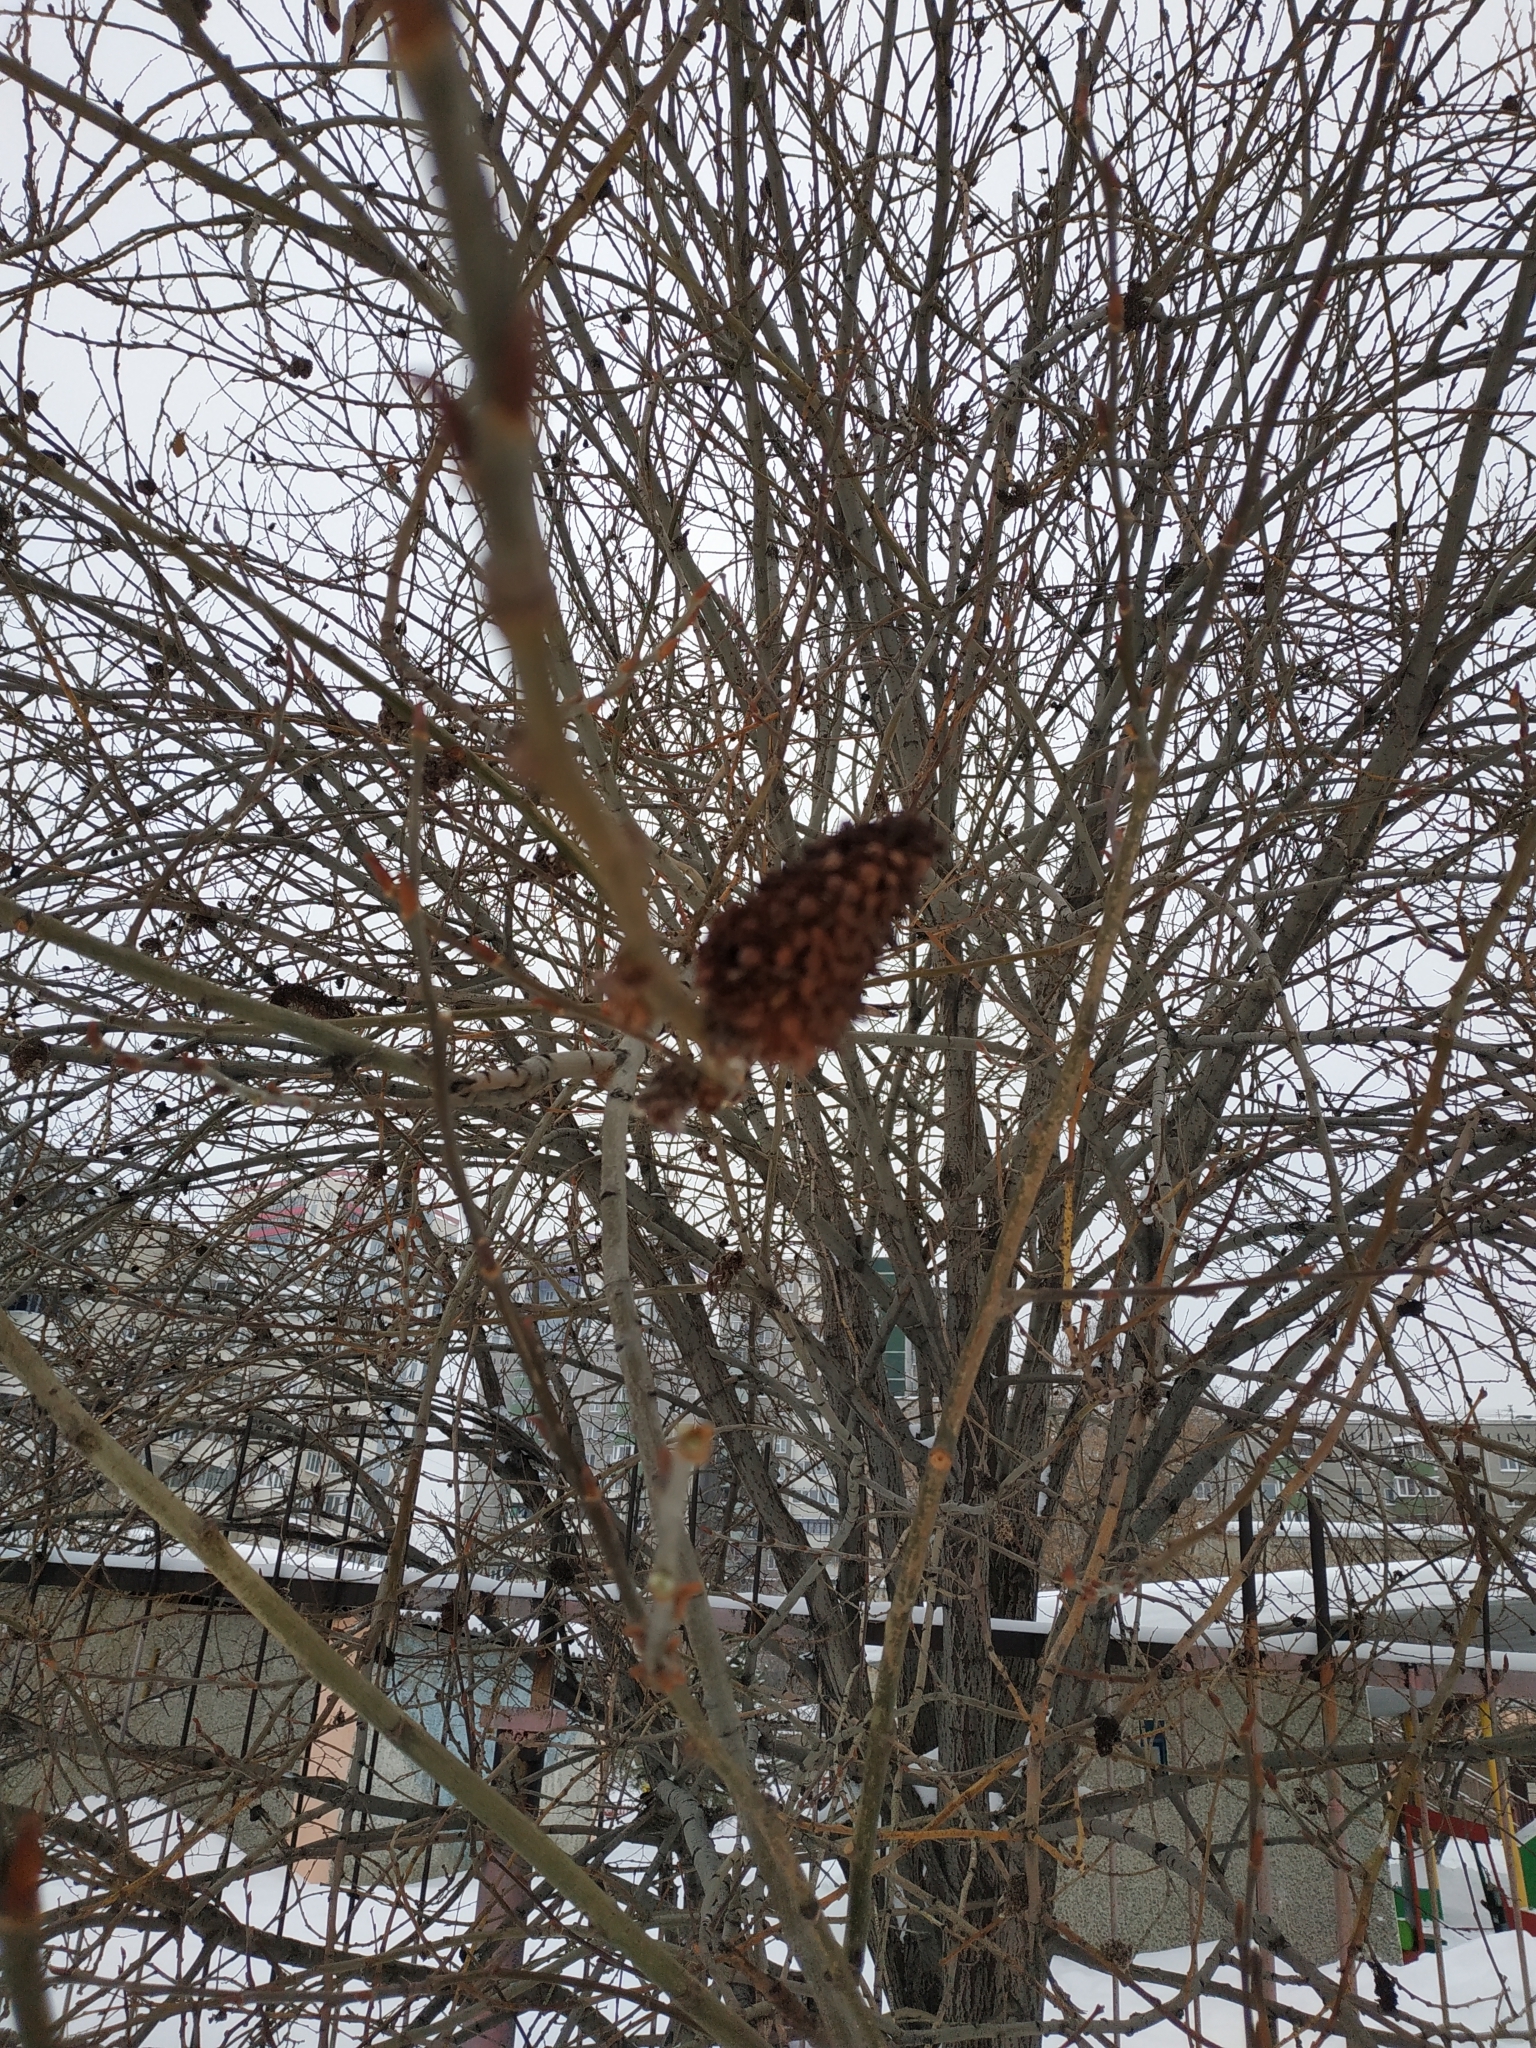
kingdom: Plantae
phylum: Tracheophyta
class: Magnoliopsida
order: Malpighiales
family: Salicaceae
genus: Salix
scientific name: Salix caprea
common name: Goat willow
